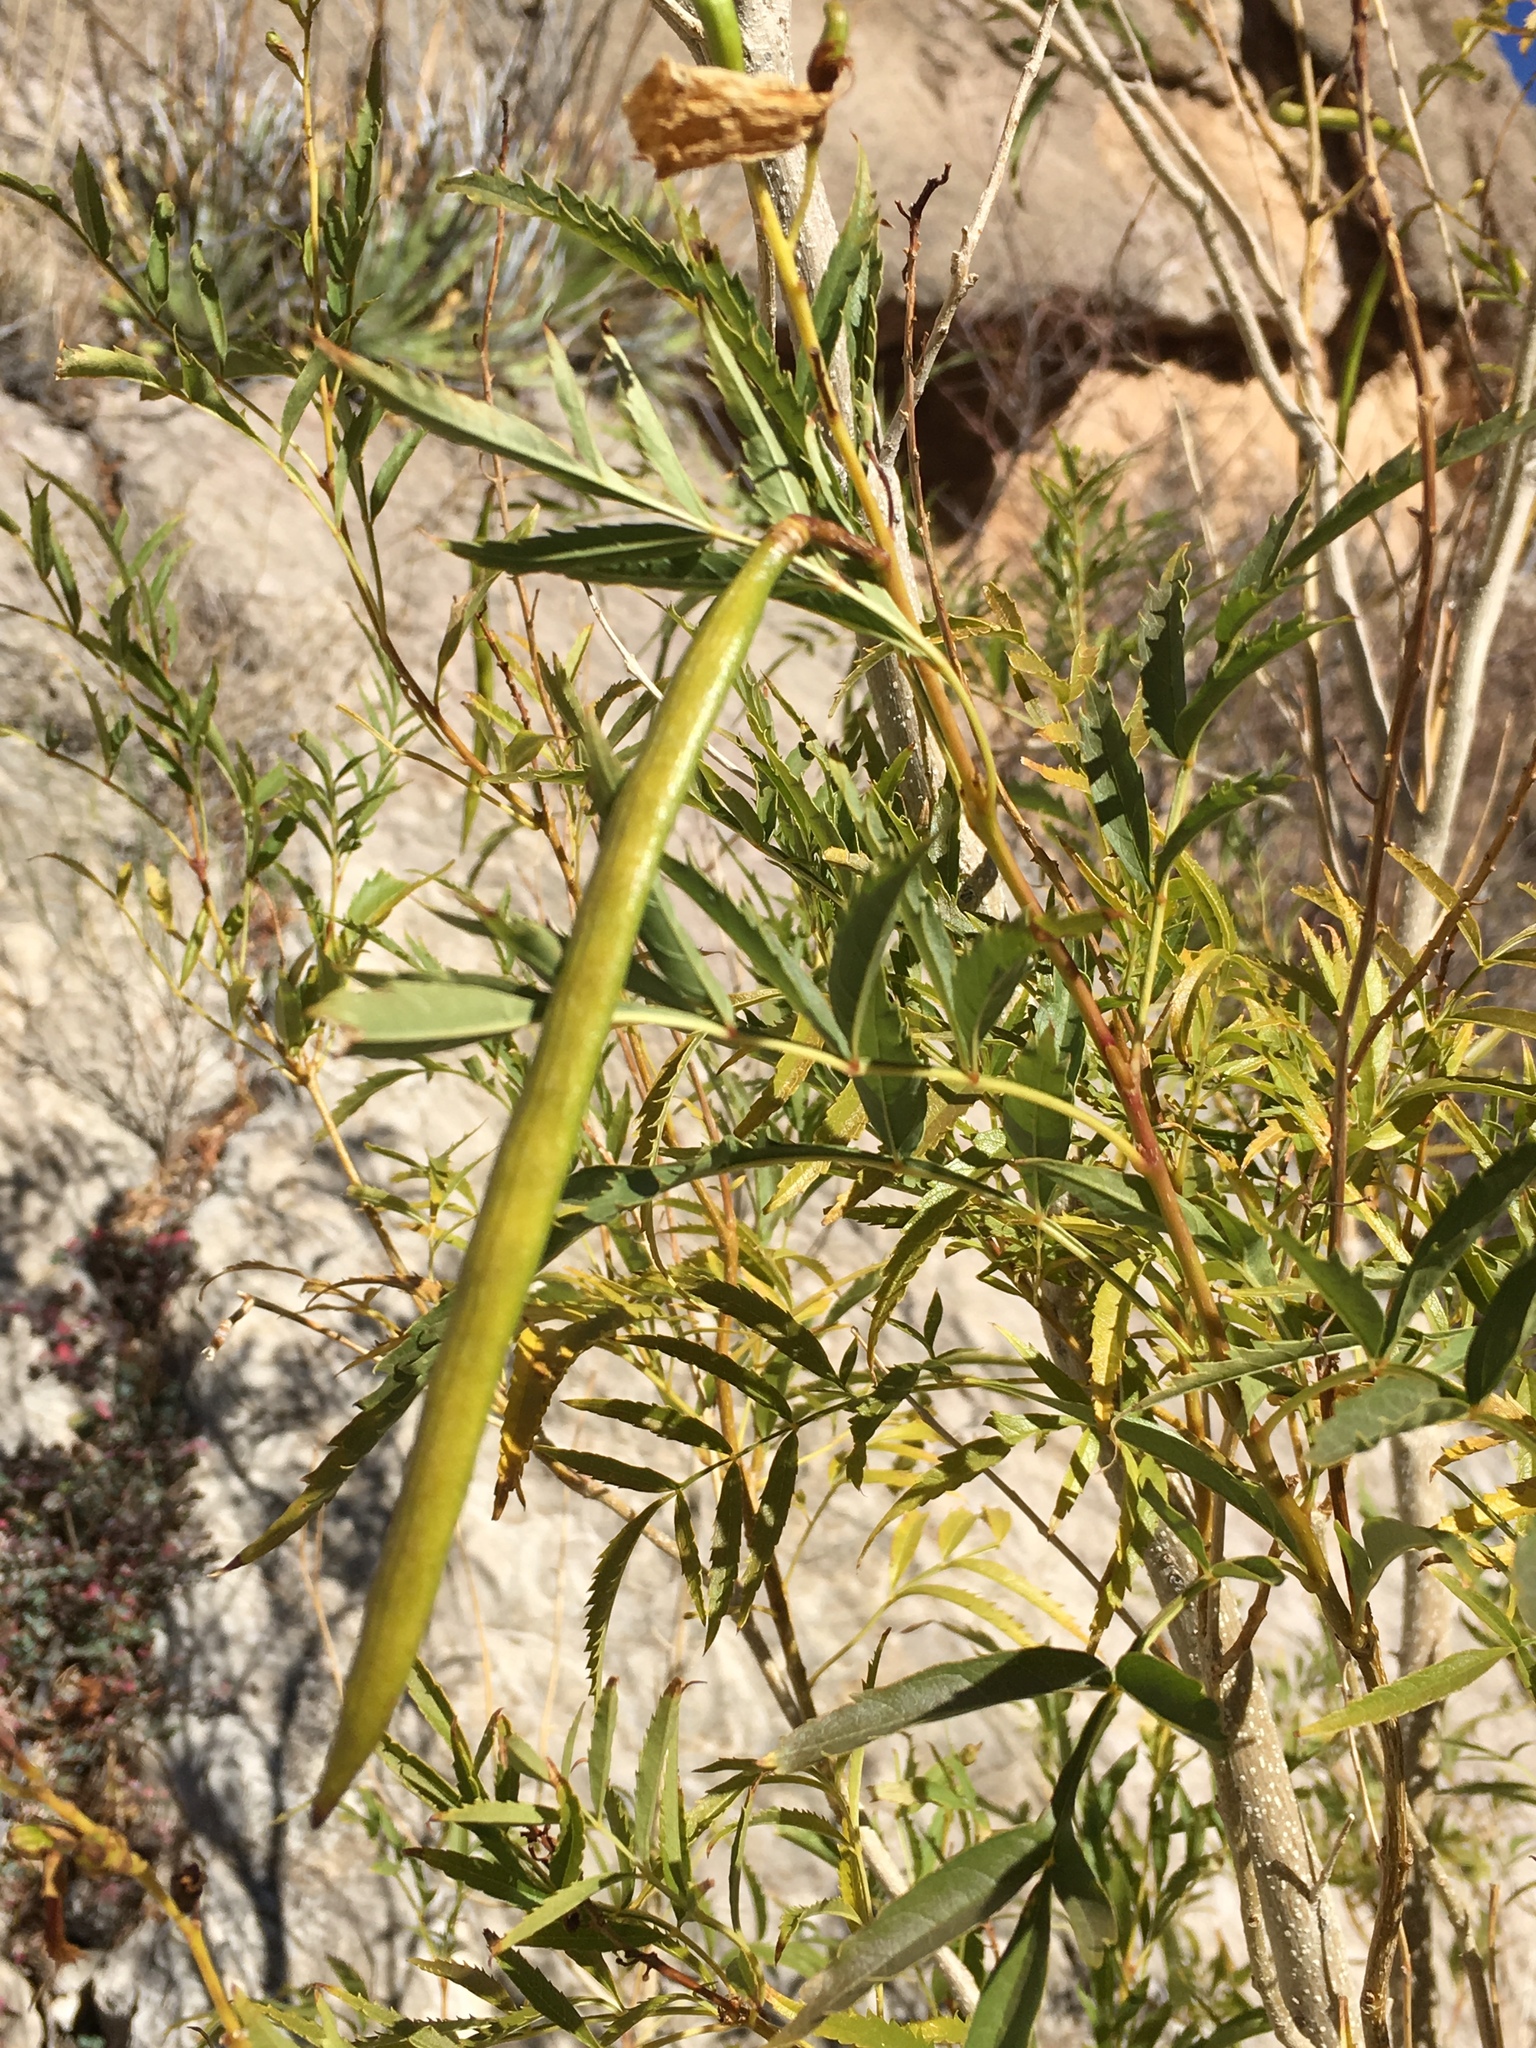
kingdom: Plantae
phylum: Tracheophyta
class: Magnoliopsida
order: Lamiales
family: Bignoniaceae
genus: Tecoma
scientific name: Tecoma stans
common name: Yellow trumpetbush
